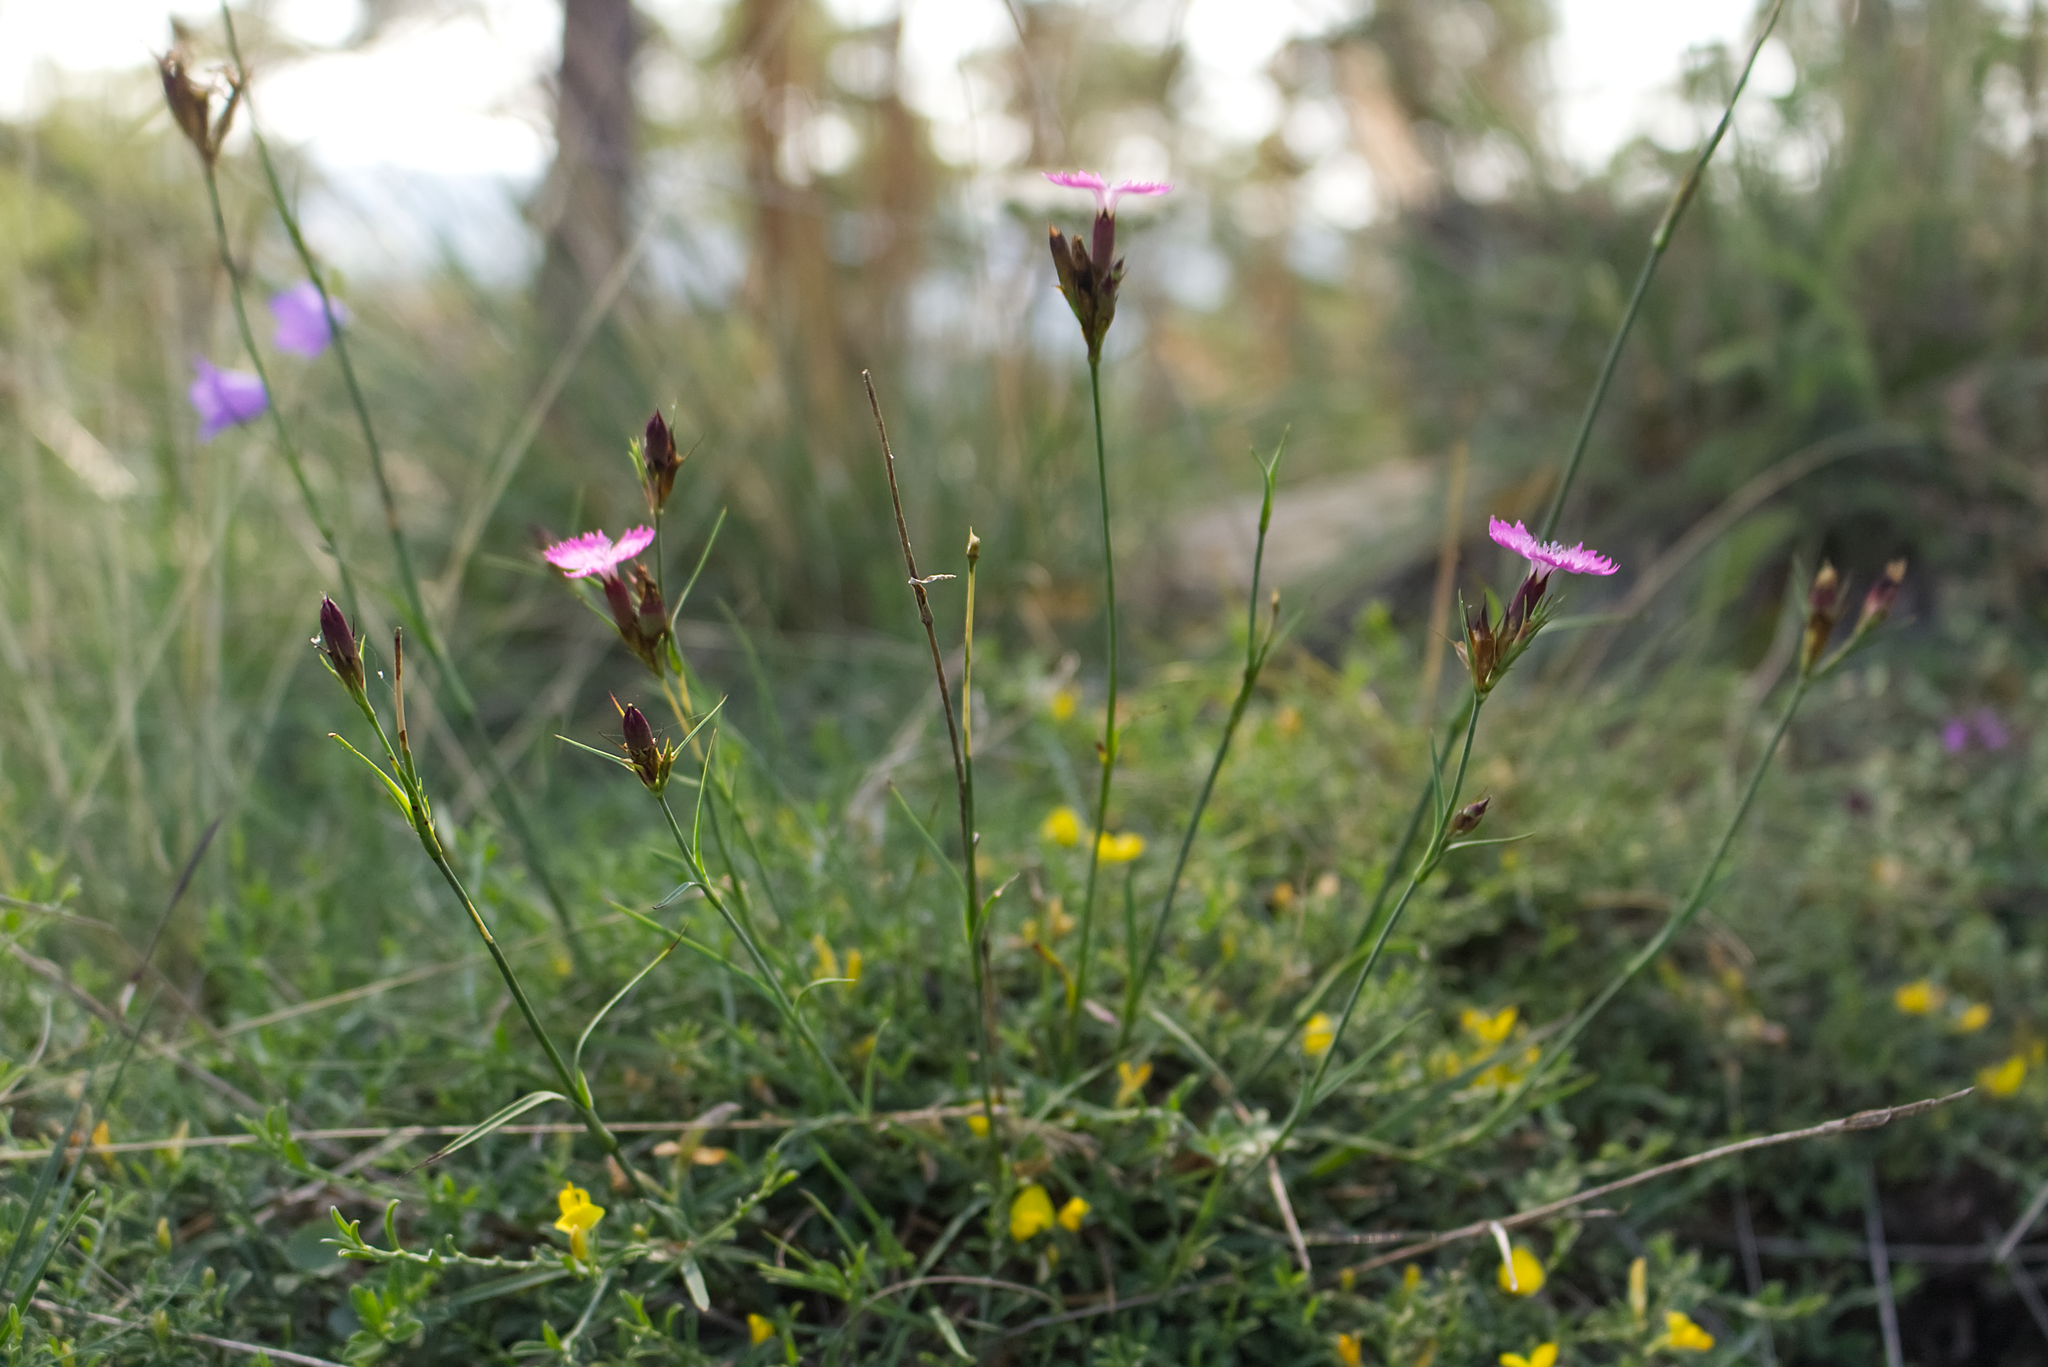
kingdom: Plantae
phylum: Tracheophyta
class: Magnoliopsida
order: Caryophyllales
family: Caryophyllaceae
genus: Dianthus
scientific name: Dianthus carthusianorum
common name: Carthusian pink
